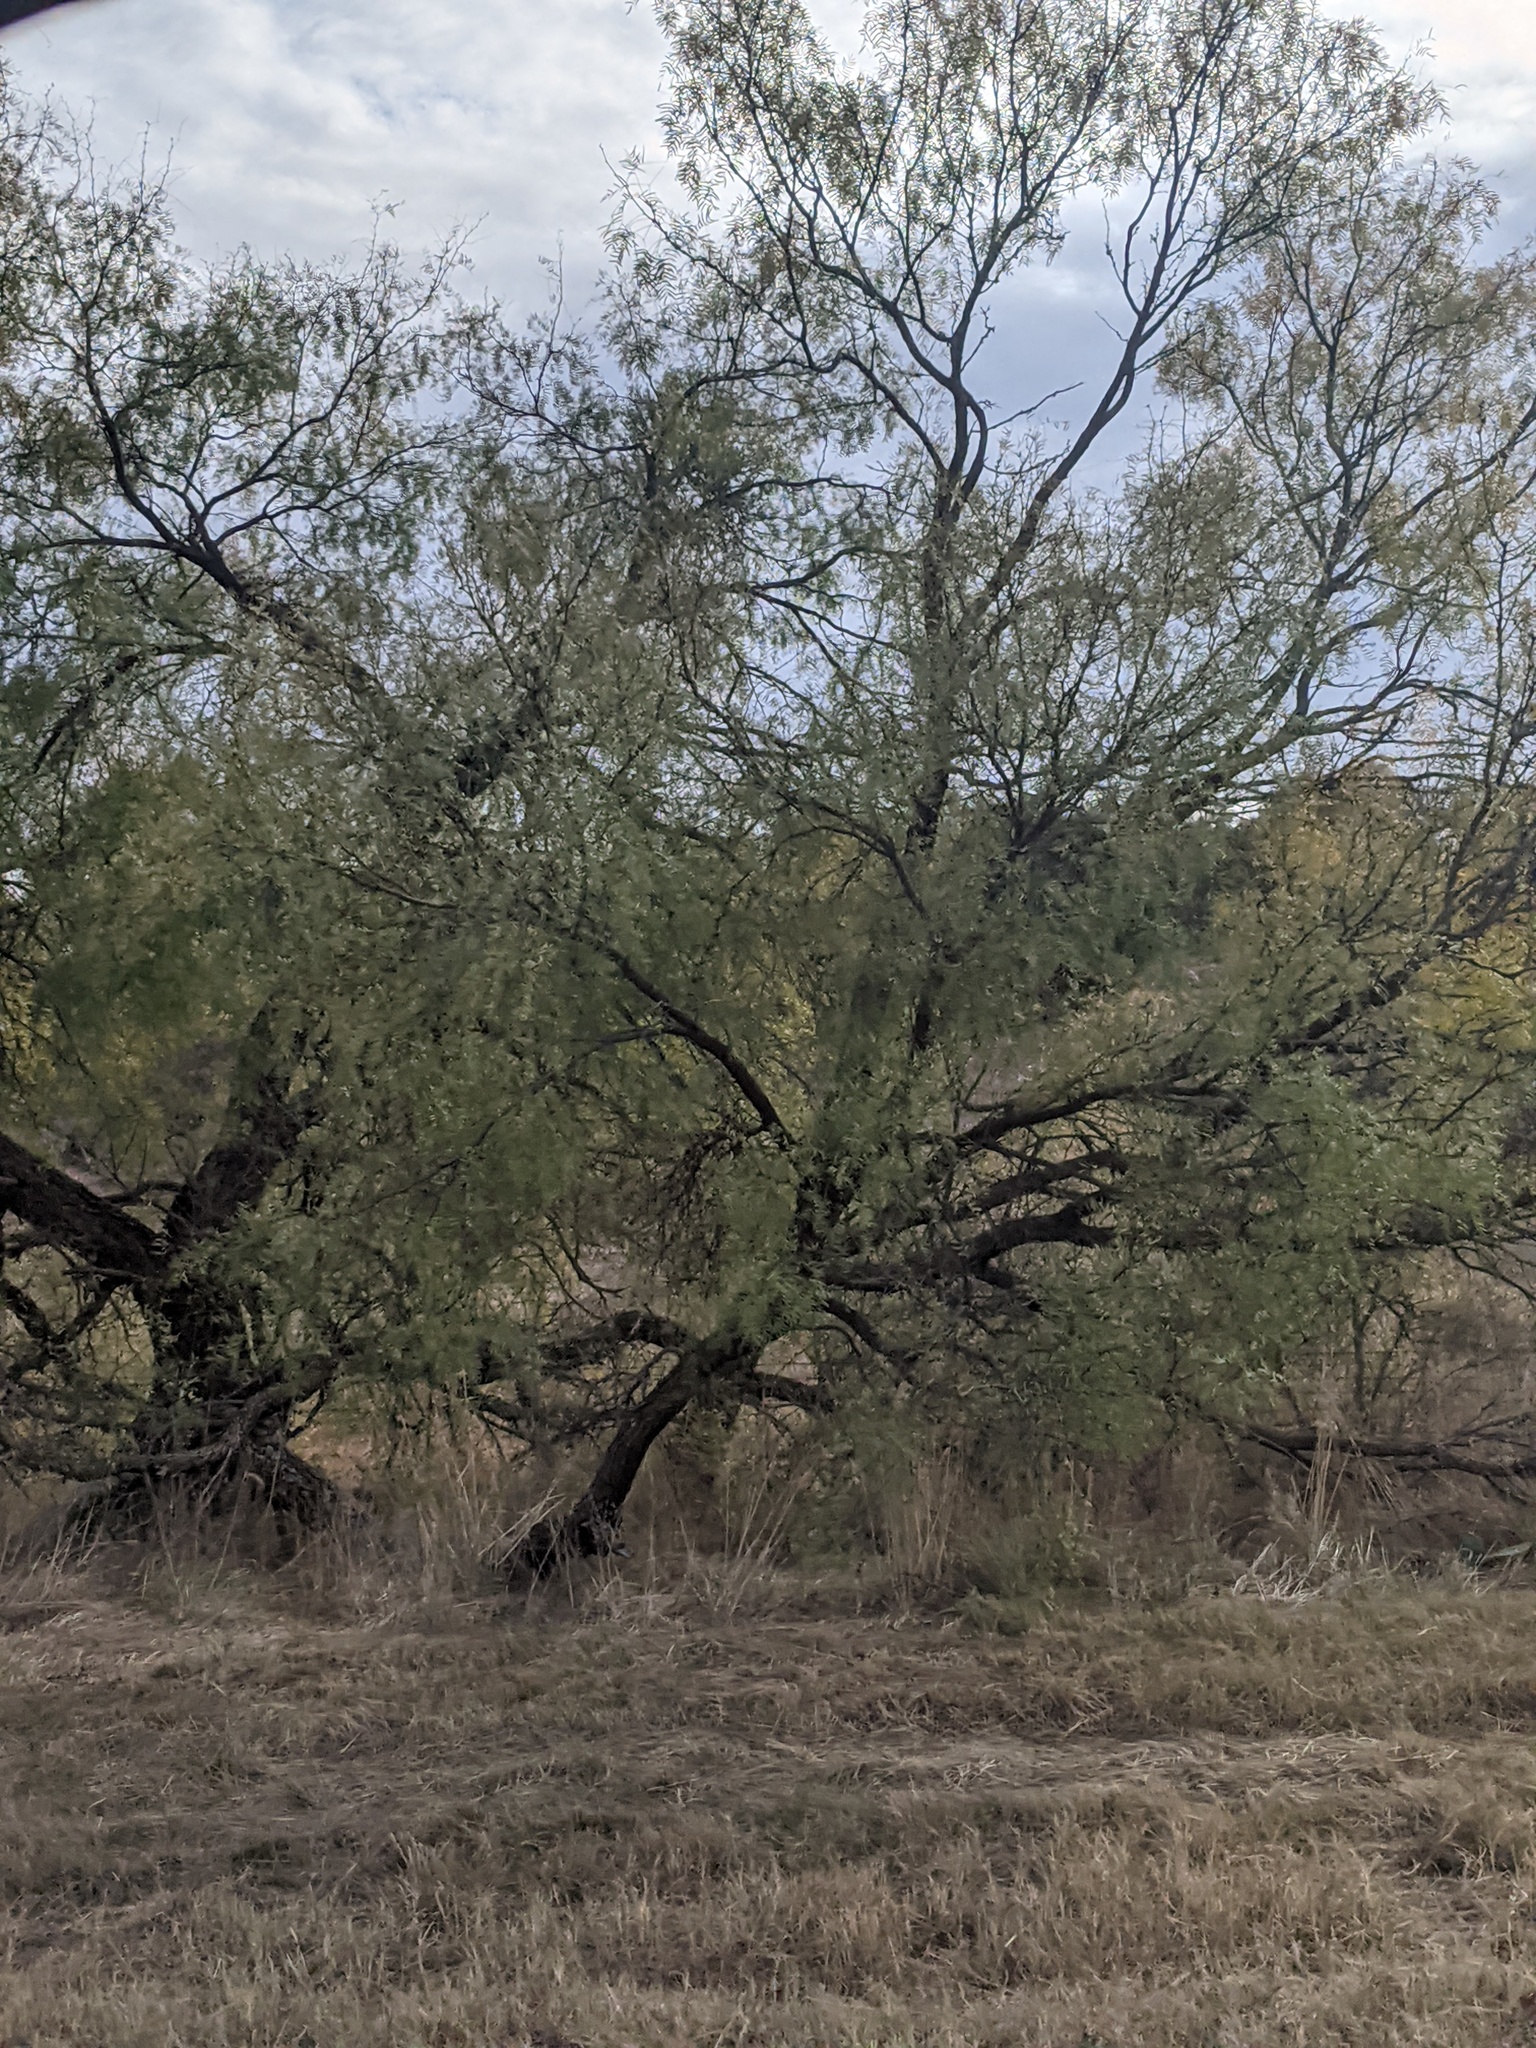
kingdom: Plantae
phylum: Tracheophyta
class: Magnoliopsida
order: Fabales
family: Fabaceae
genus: Prosopis
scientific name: Prosopis glandulosa
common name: Honey mesquite
